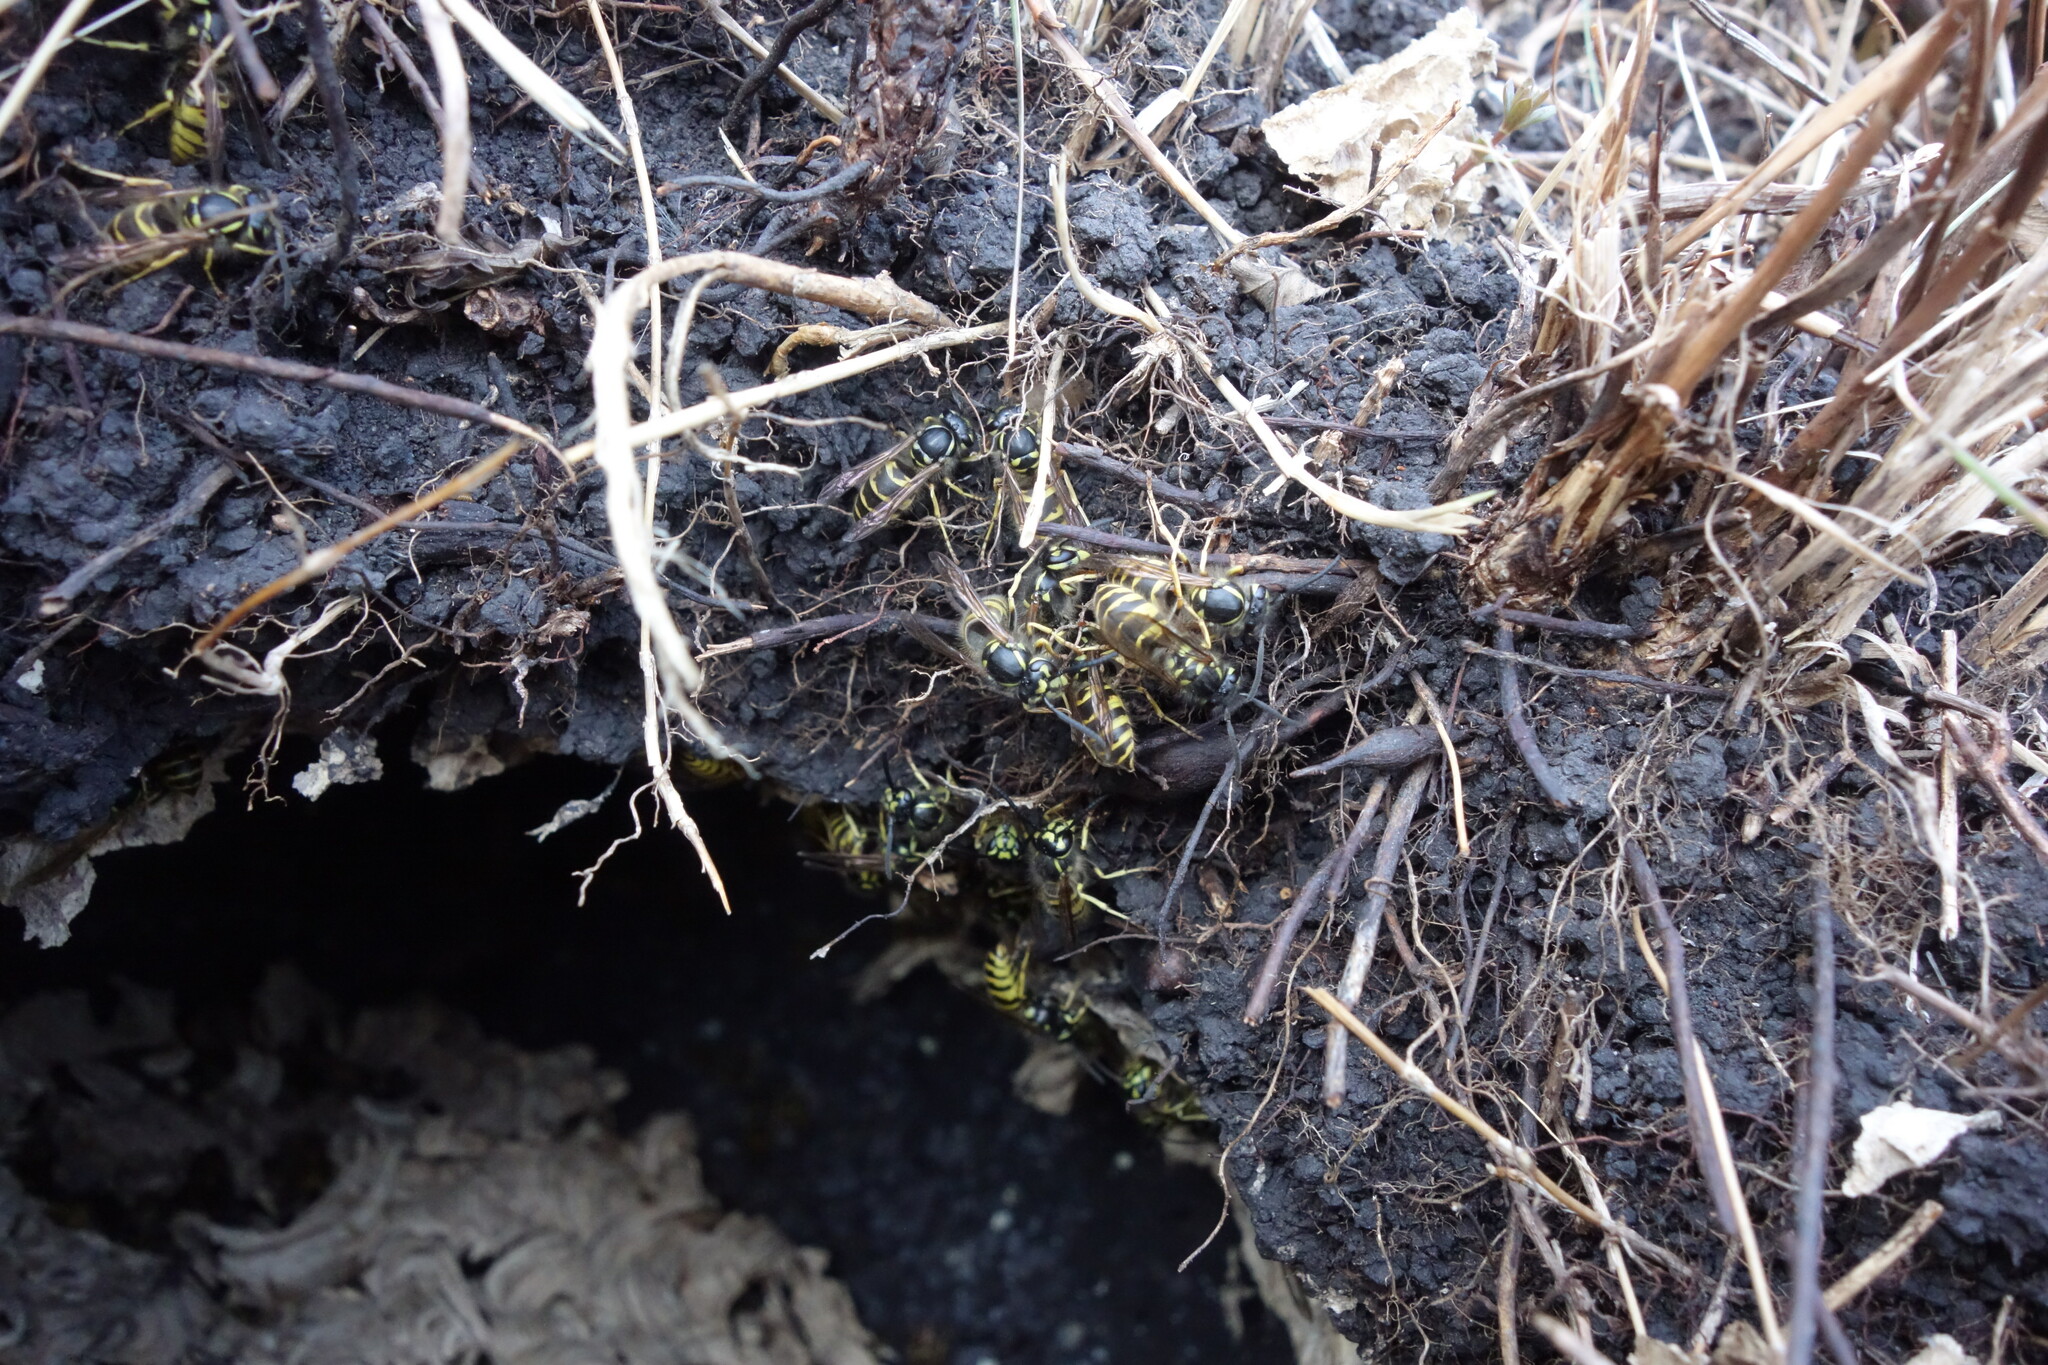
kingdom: Animalia
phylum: Arthropoda
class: Insecta
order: Hymenoptera
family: Vespidae
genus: Vespula
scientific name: Vespula vulgaris
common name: Common wasp
